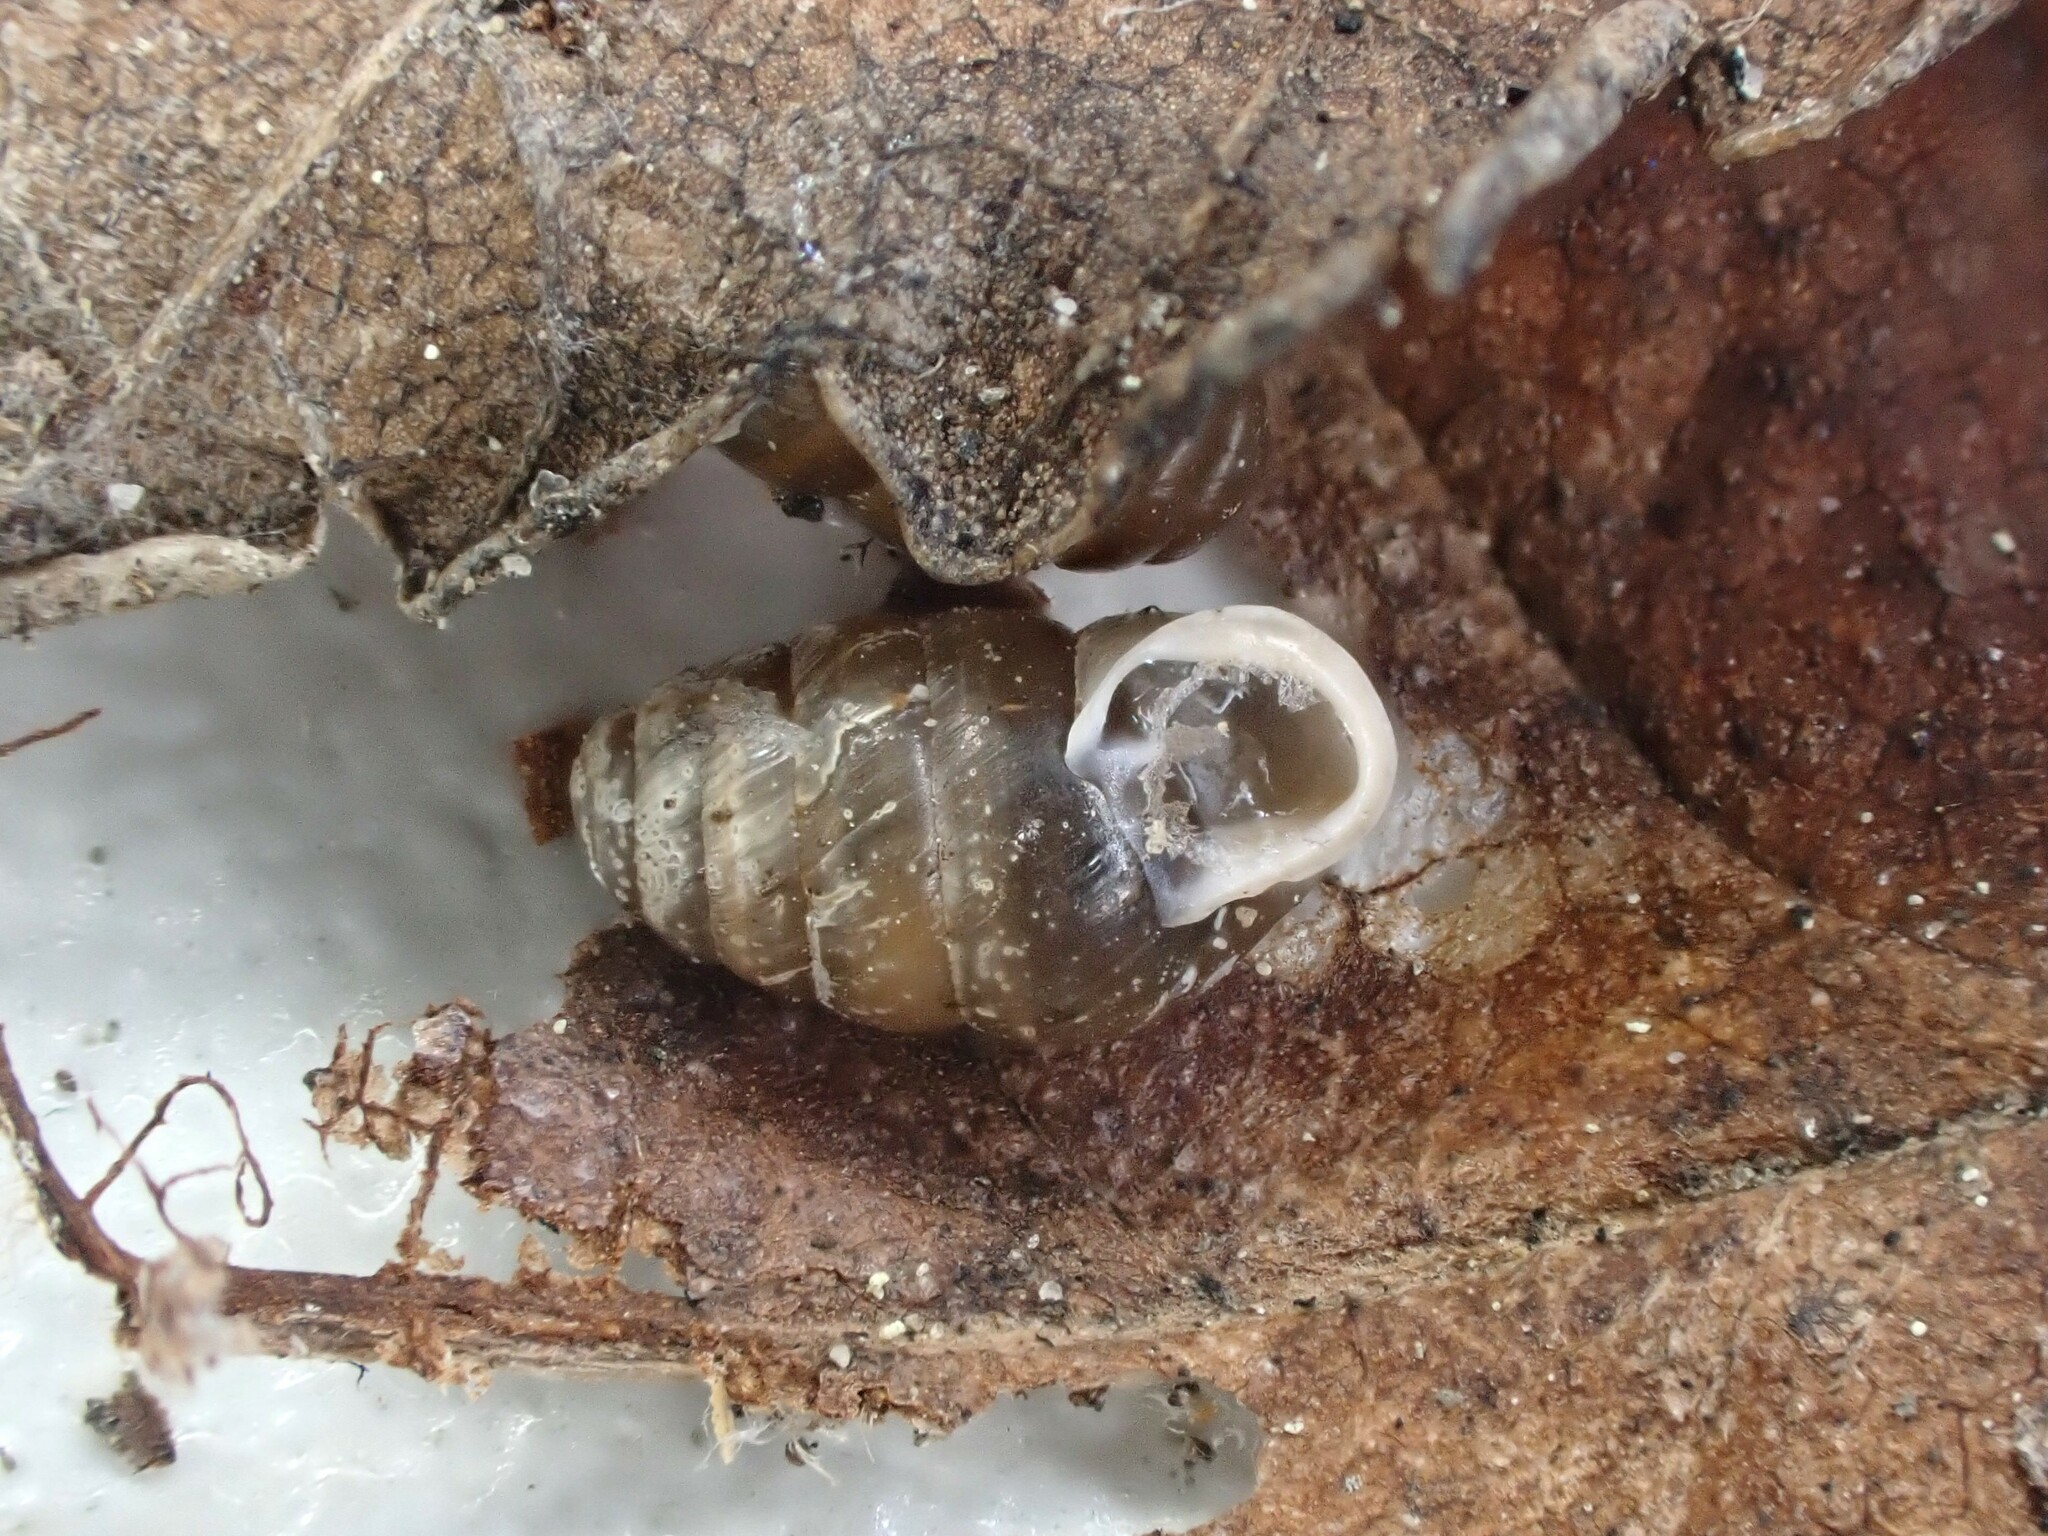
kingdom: Animalia
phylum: Mollusca
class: Gastropoda
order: Stylommatophora
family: Lauriidae
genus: Lauria
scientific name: Lauria cylindracea
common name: Common chrysalis snail
